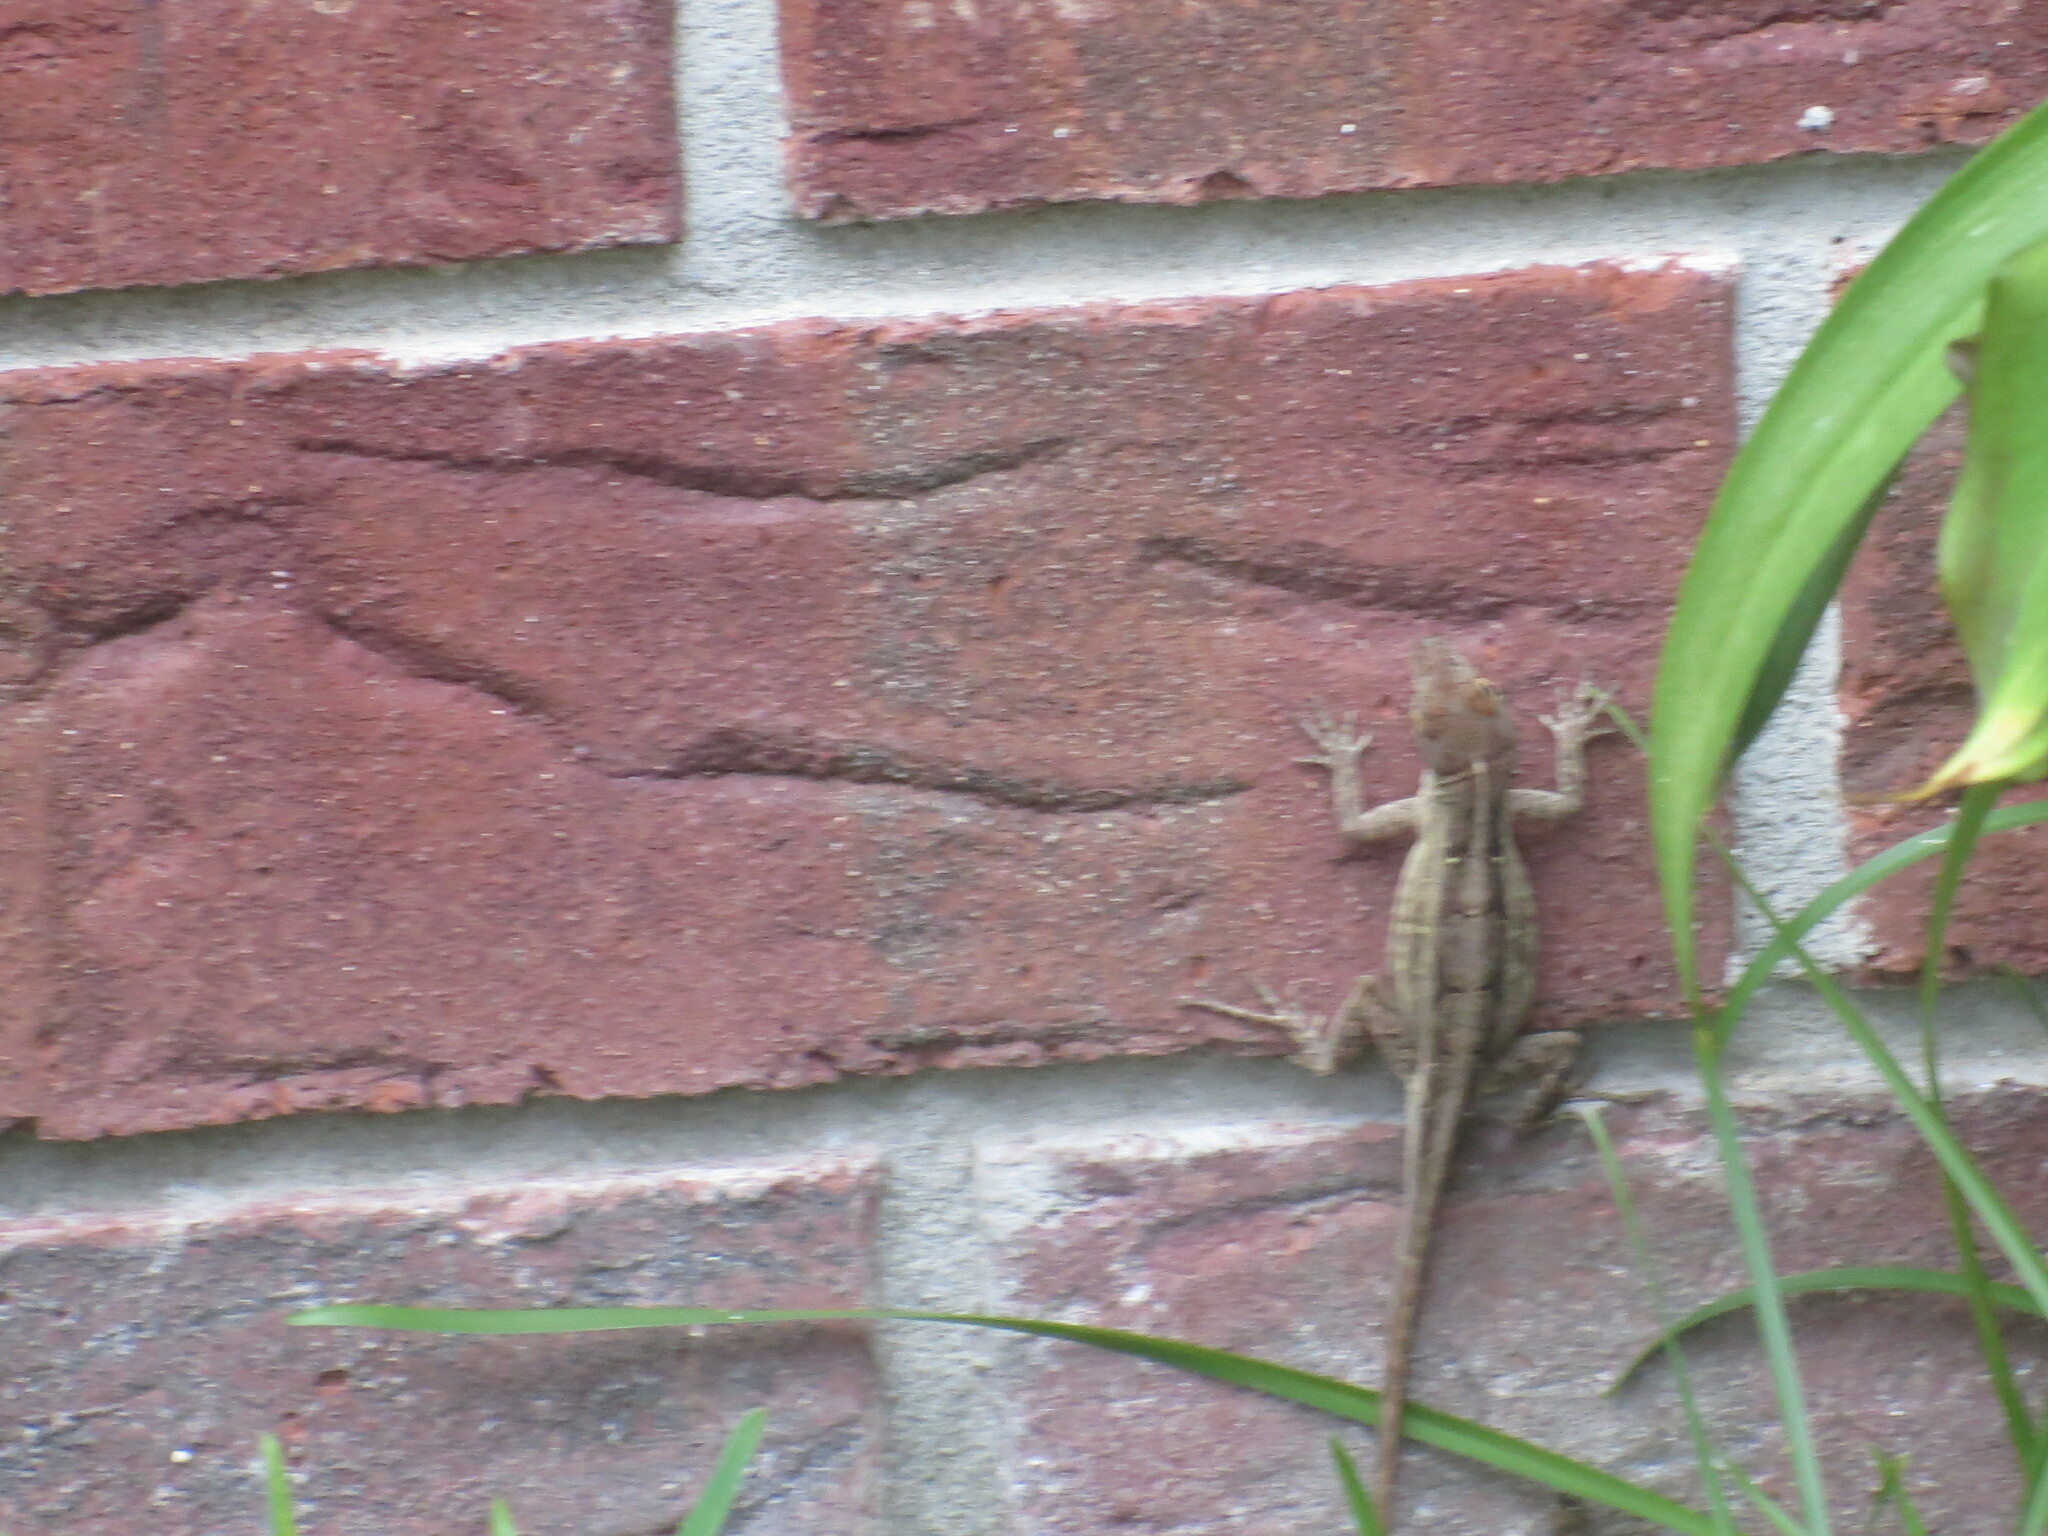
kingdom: Animalia
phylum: Chordata
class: Squamata
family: Dactyloidae
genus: Anolis
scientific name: Anolis sagrei
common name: Brown anole
